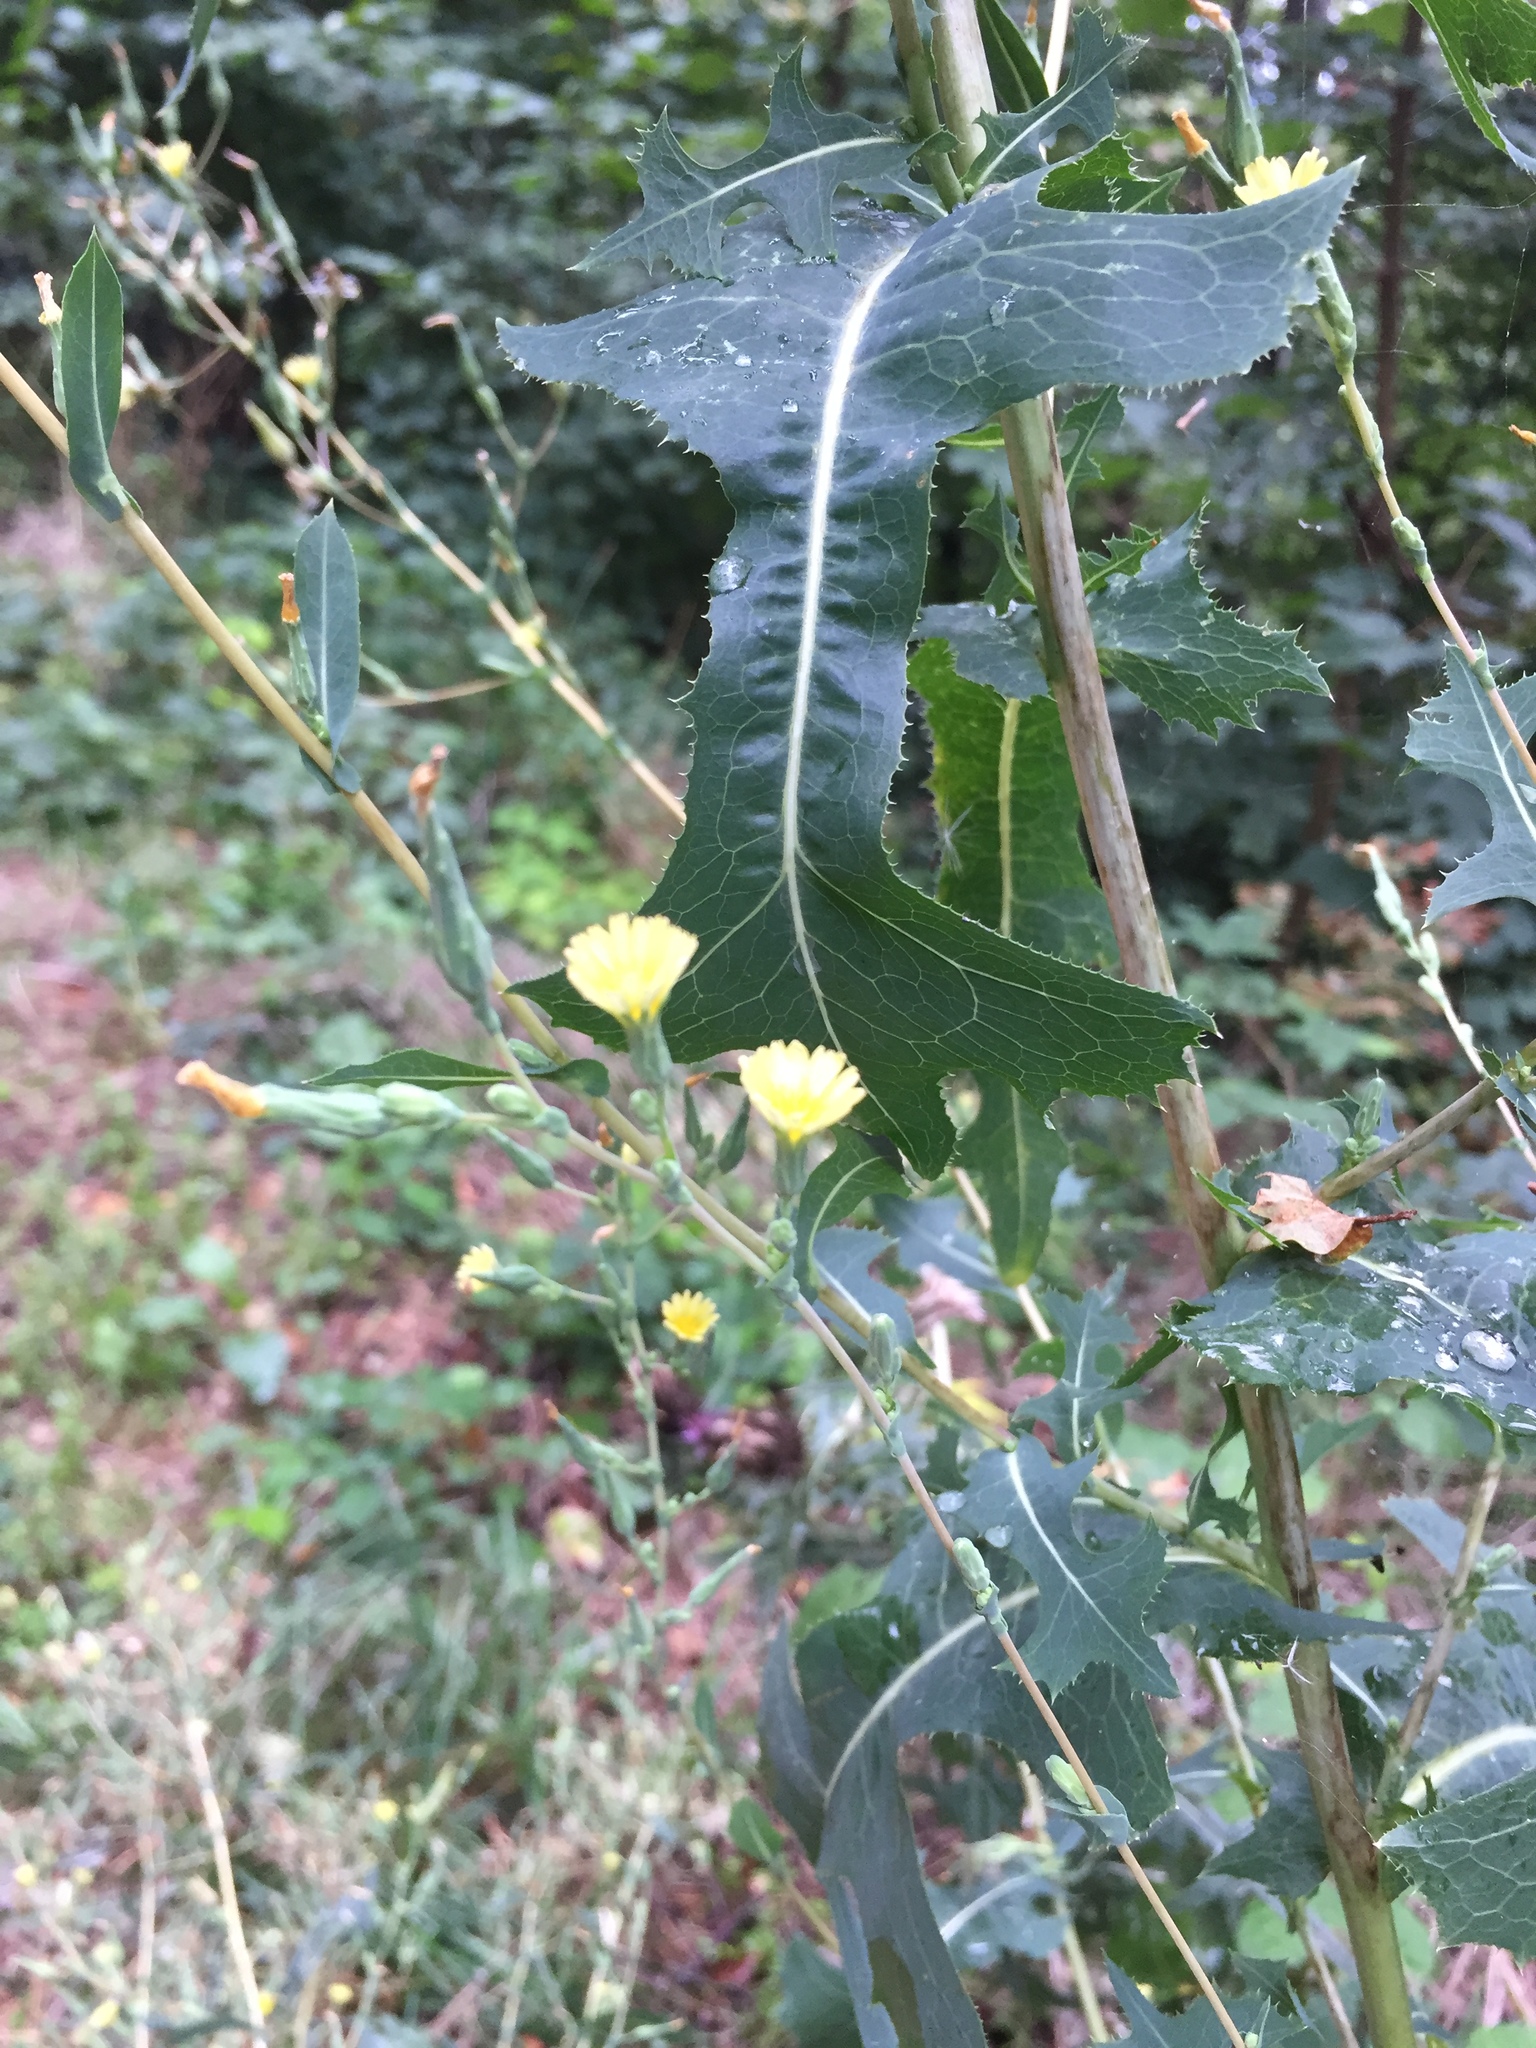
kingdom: Plantae
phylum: Tracheophyta
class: Magnoliopsida
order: Asterales
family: Asteraceae
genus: Lactuca
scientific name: Lactuca serriola
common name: Prickly lettuce
